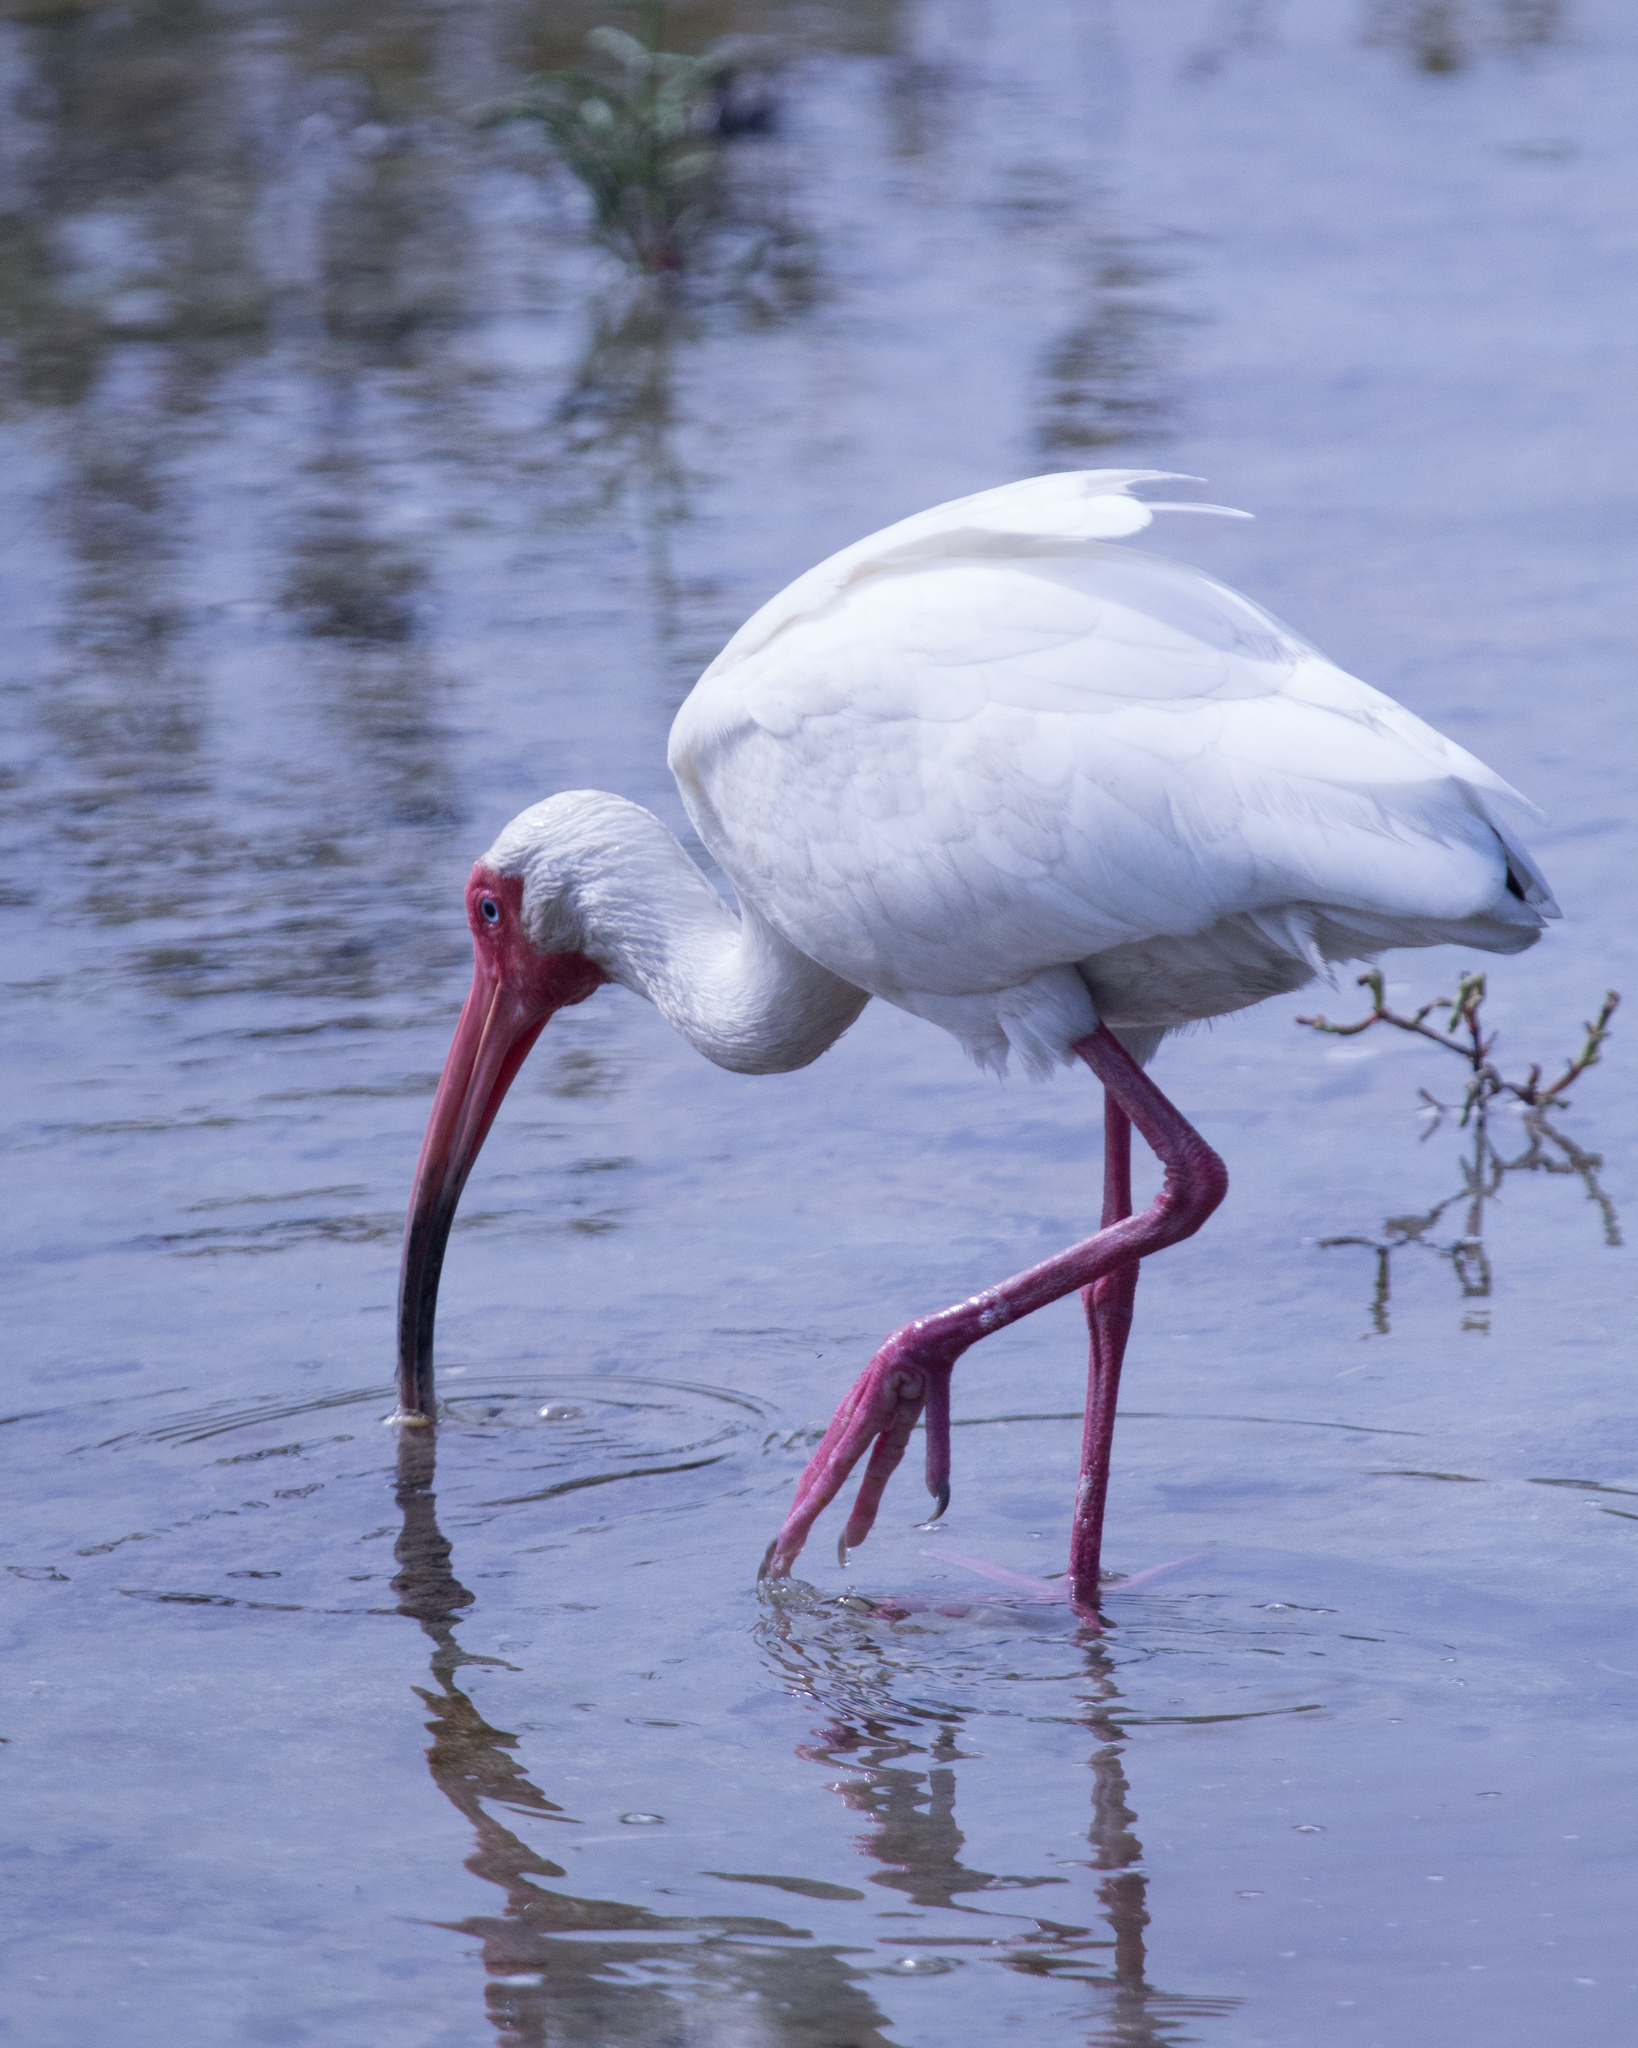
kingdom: Animalia
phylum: Chordata
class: Aves
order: Pelecaniformes
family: Threskiornithidae
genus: Eudocimus
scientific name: Eudocimus albus
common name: White ibis
